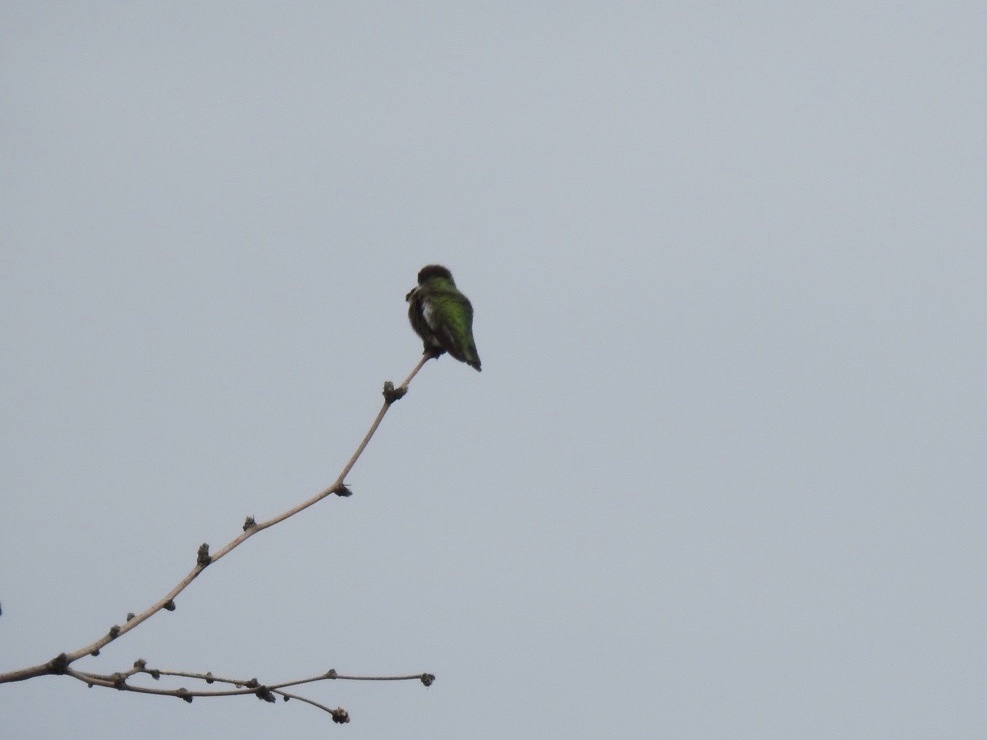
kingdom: Animalia
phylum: Chordata
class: Aves
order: Apodiformes
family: Trochilidae
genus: Calypte
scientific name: Calypte anna
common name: Anna's hummingbird
